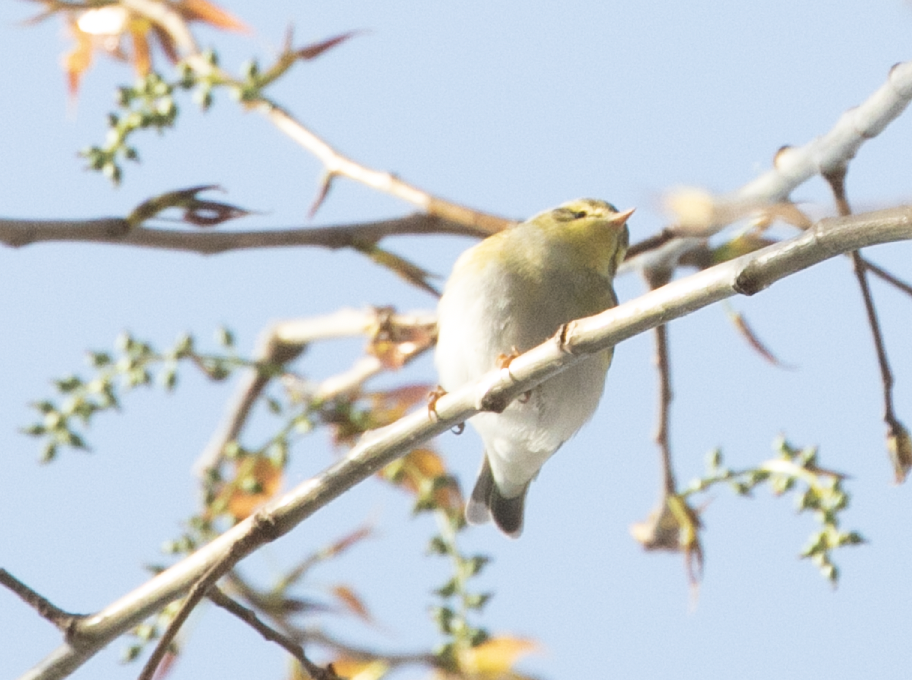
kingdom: Animalia
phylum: Chordata
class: Aves
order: Passeriformes
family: Phylloscopidae
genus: Phylloscopus
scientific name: Phylloscopus sibillatrix
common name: Wood warbler
